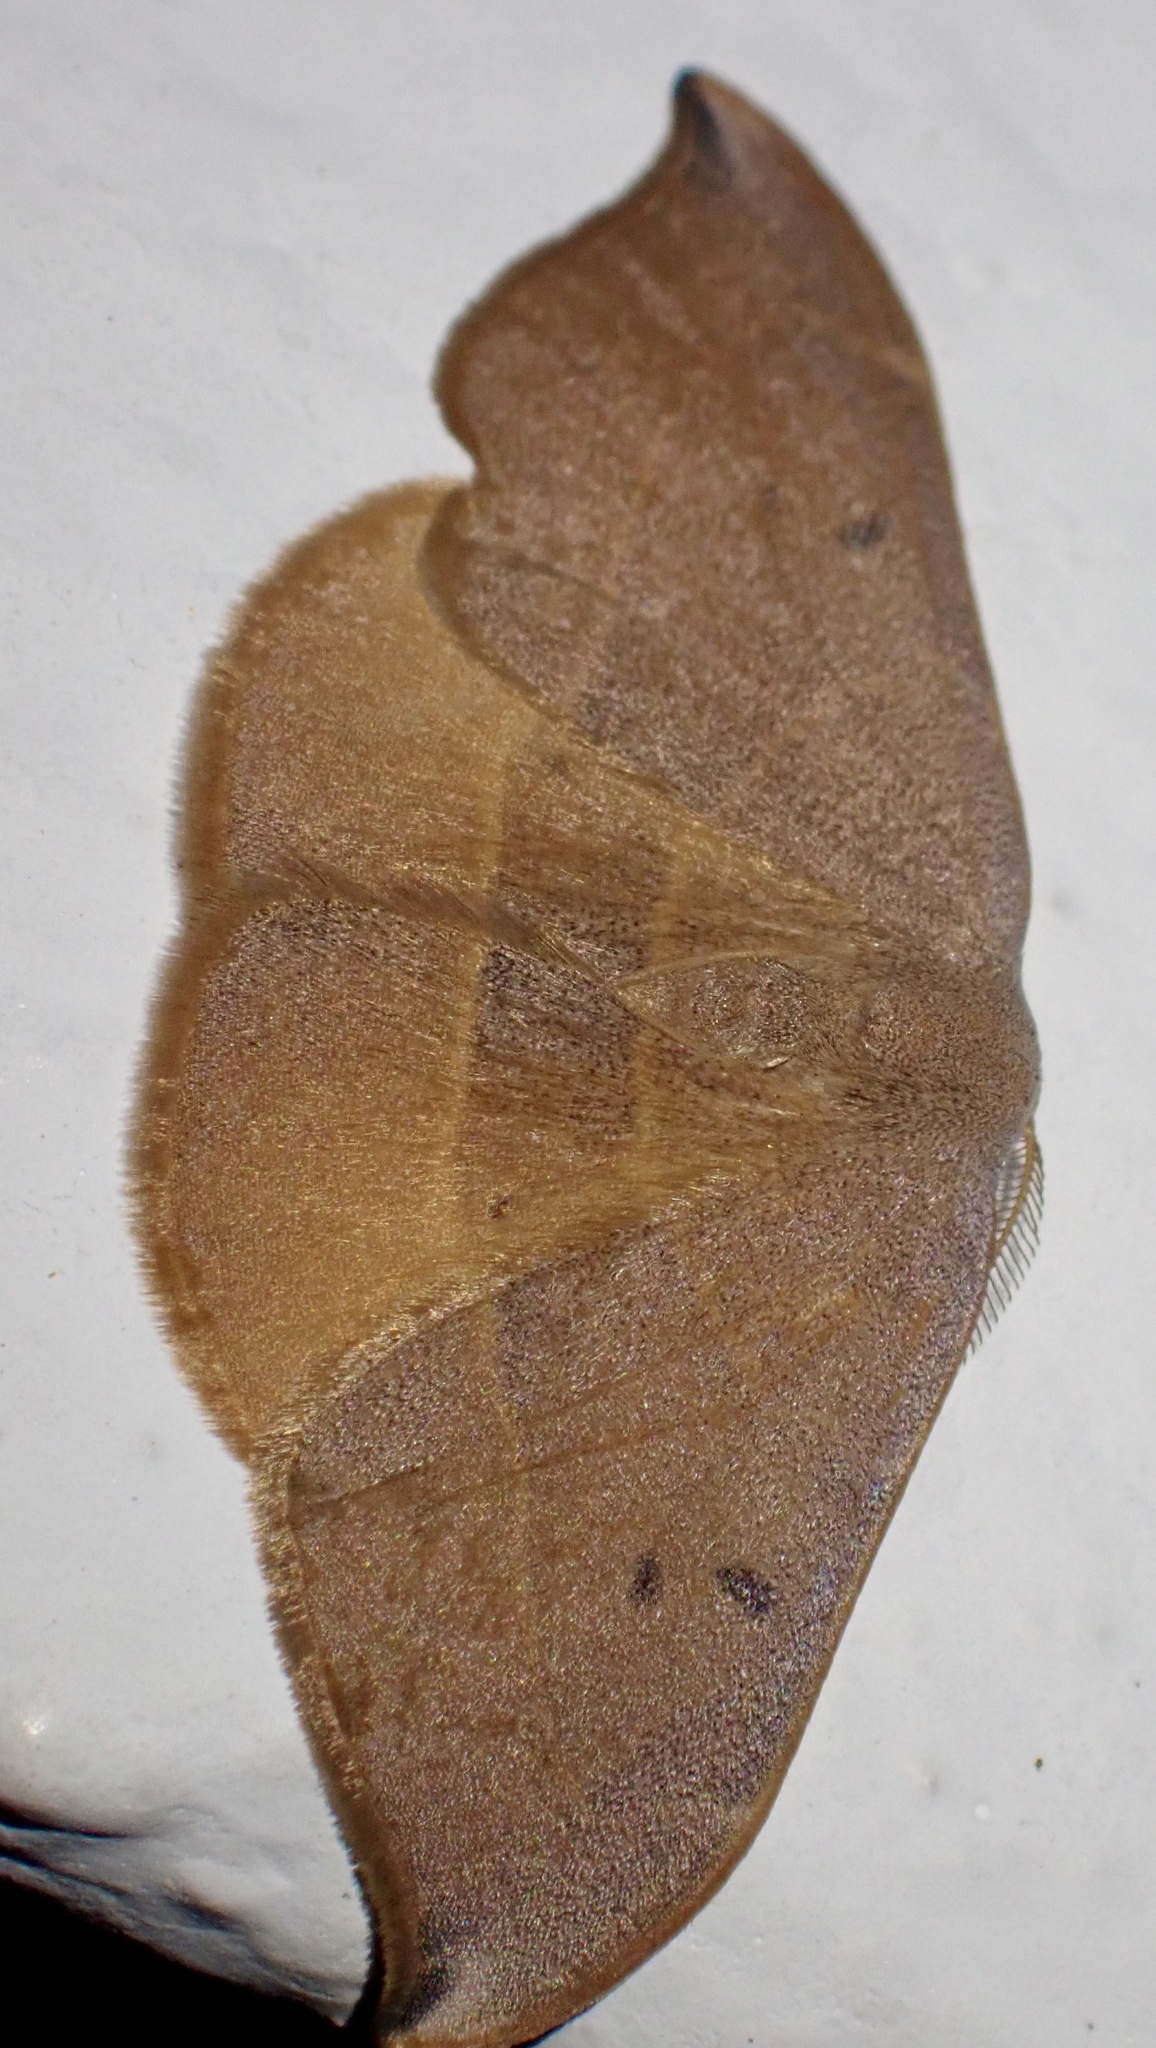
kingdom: Animalia
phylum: Arthropoda
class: Insecta
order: Lepidoptera
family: Drepanidae
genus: Watsonalla
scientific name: Watsonalla uncinula
